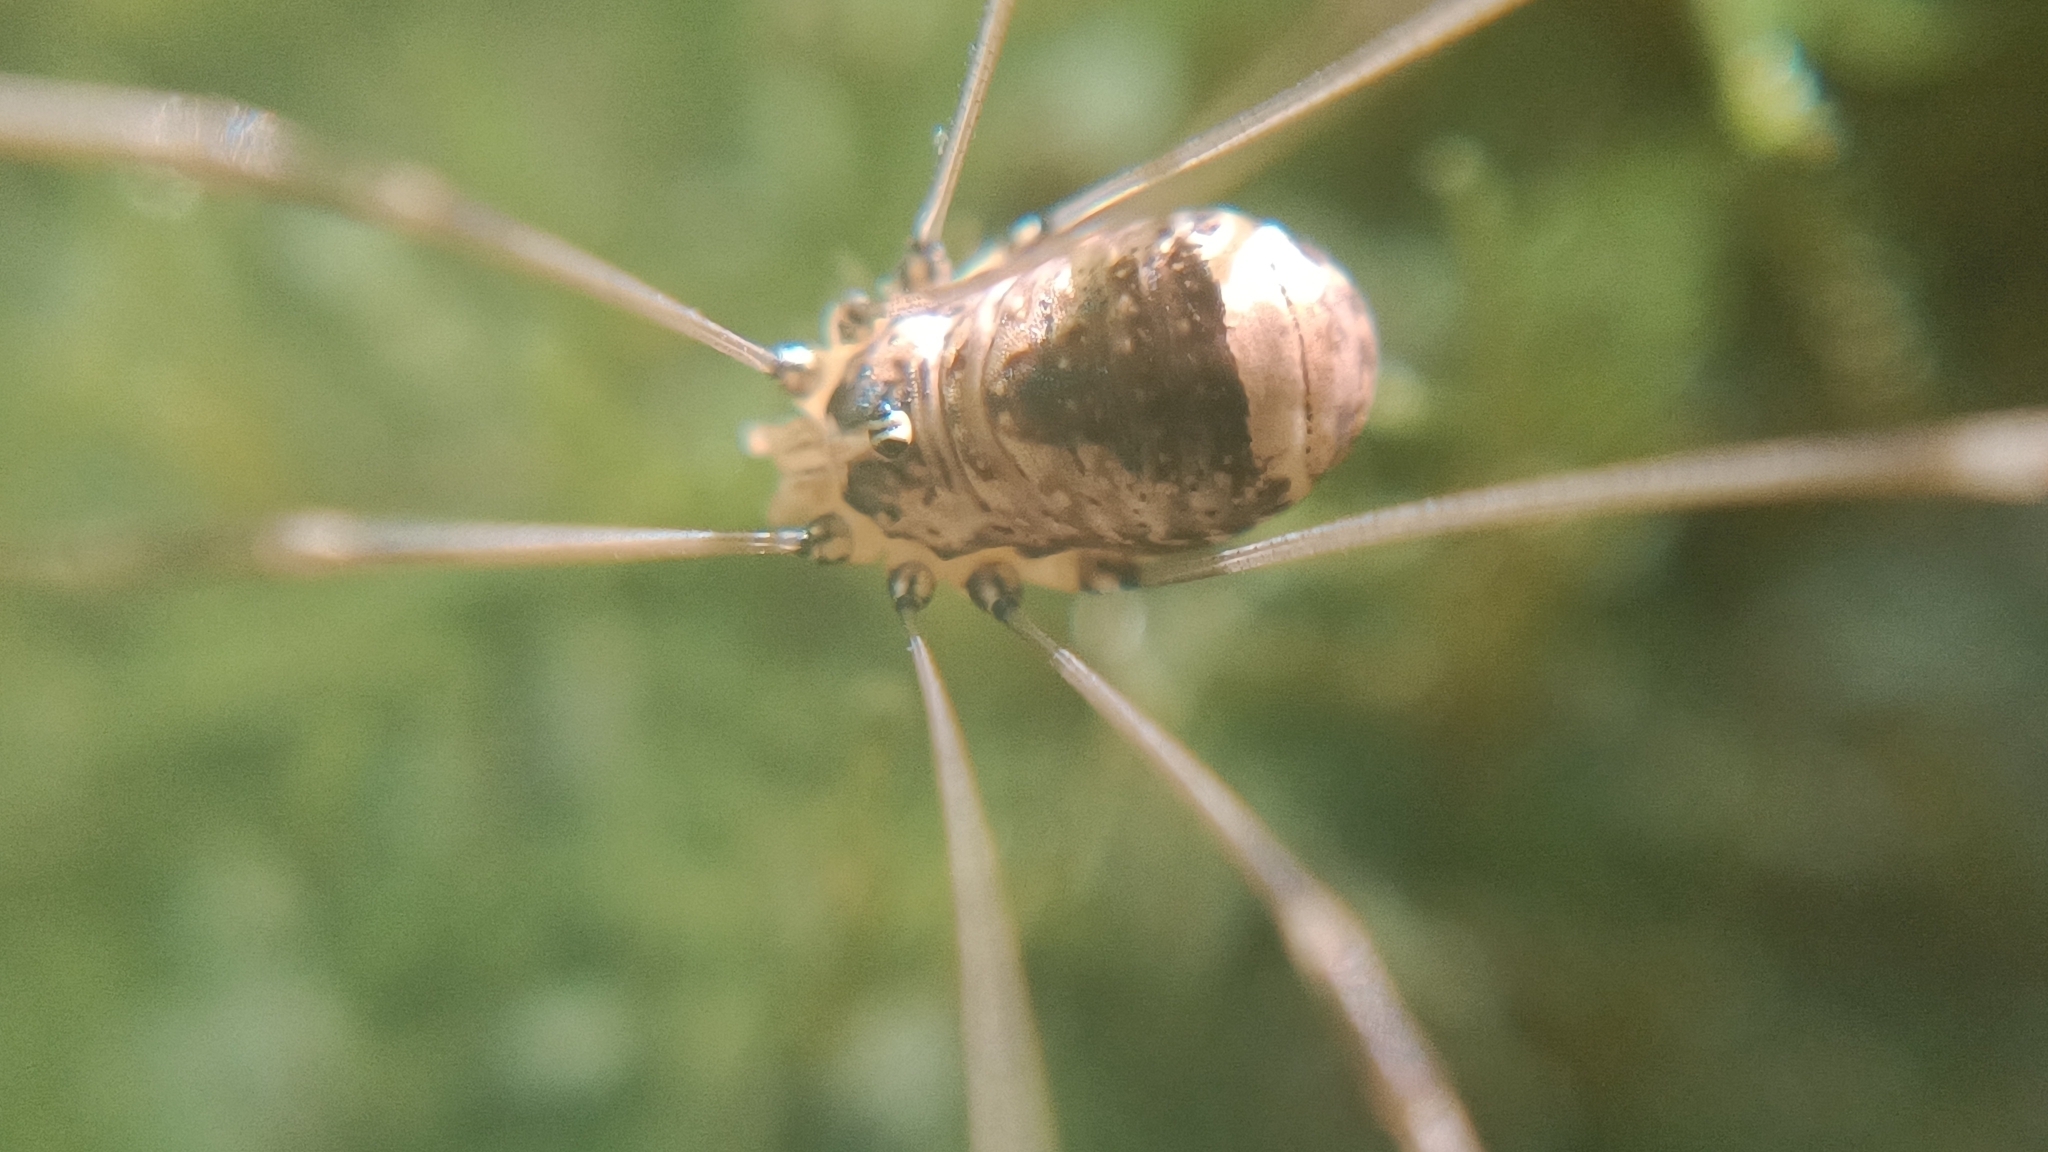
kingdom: Animalia
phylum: Arthropoda
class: Arachnida
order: Opiliones
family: Sclerosomatidae
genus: Leiobunum
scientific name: Leiobunum blackwalli
